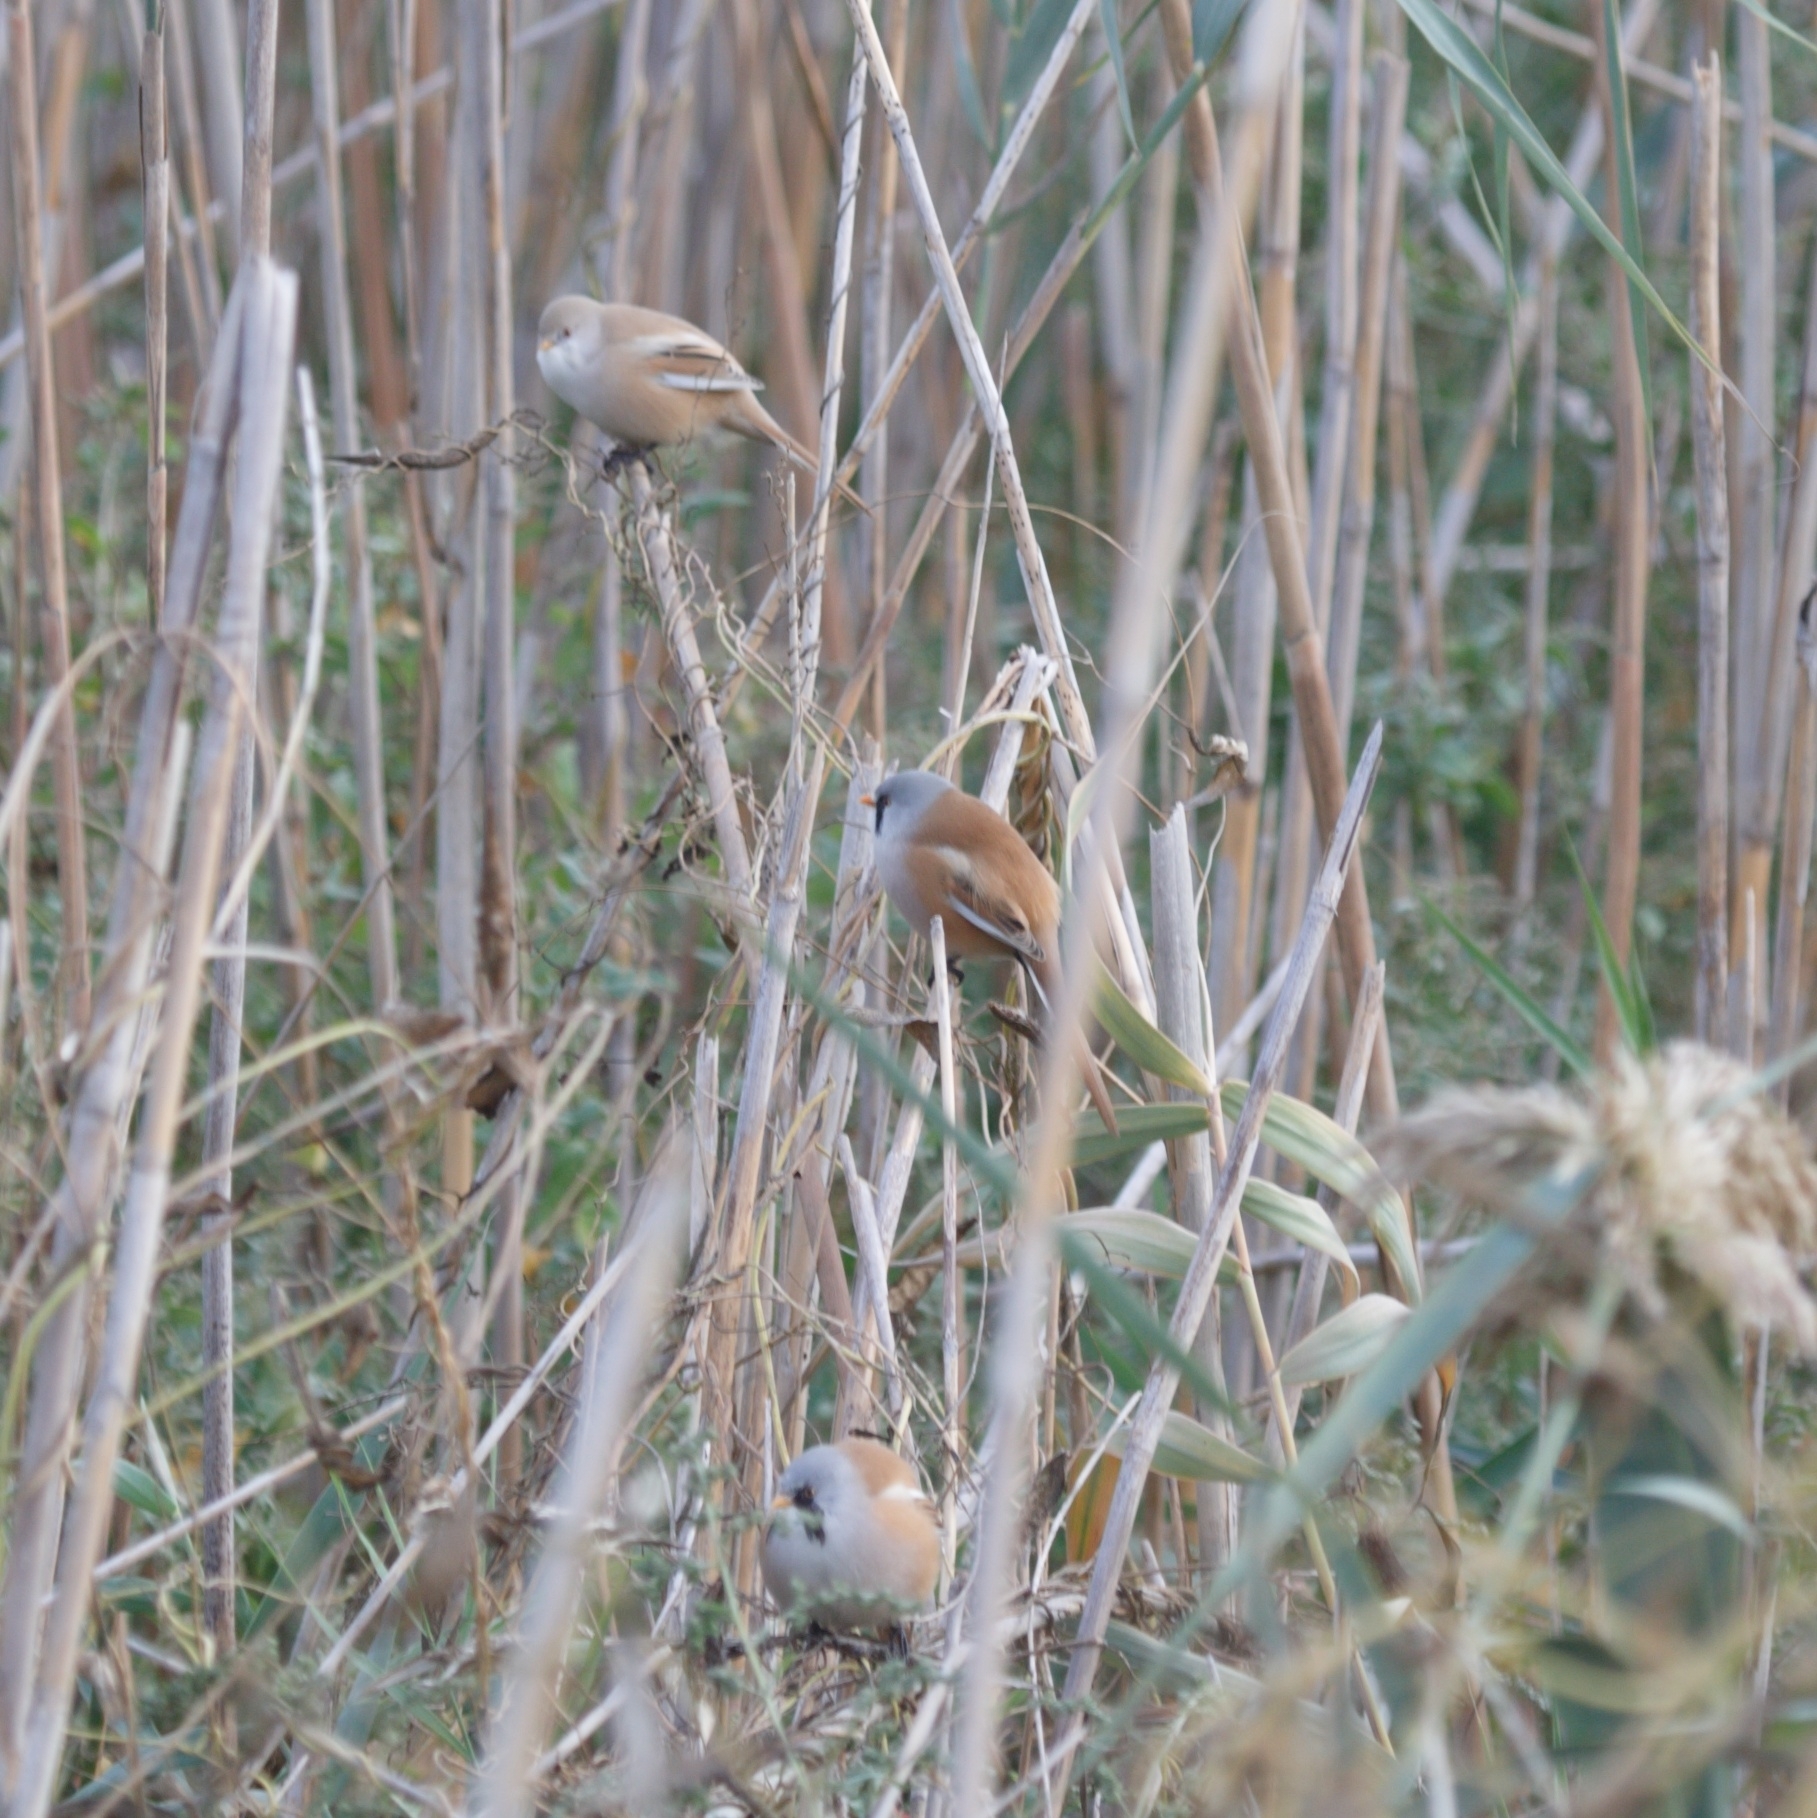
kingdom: Animalia
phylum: Chordata
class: Aves
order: Passeriformes
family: Panuridae
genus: Panurus
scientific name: Panurus biarmicus
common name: Bearded reedling
